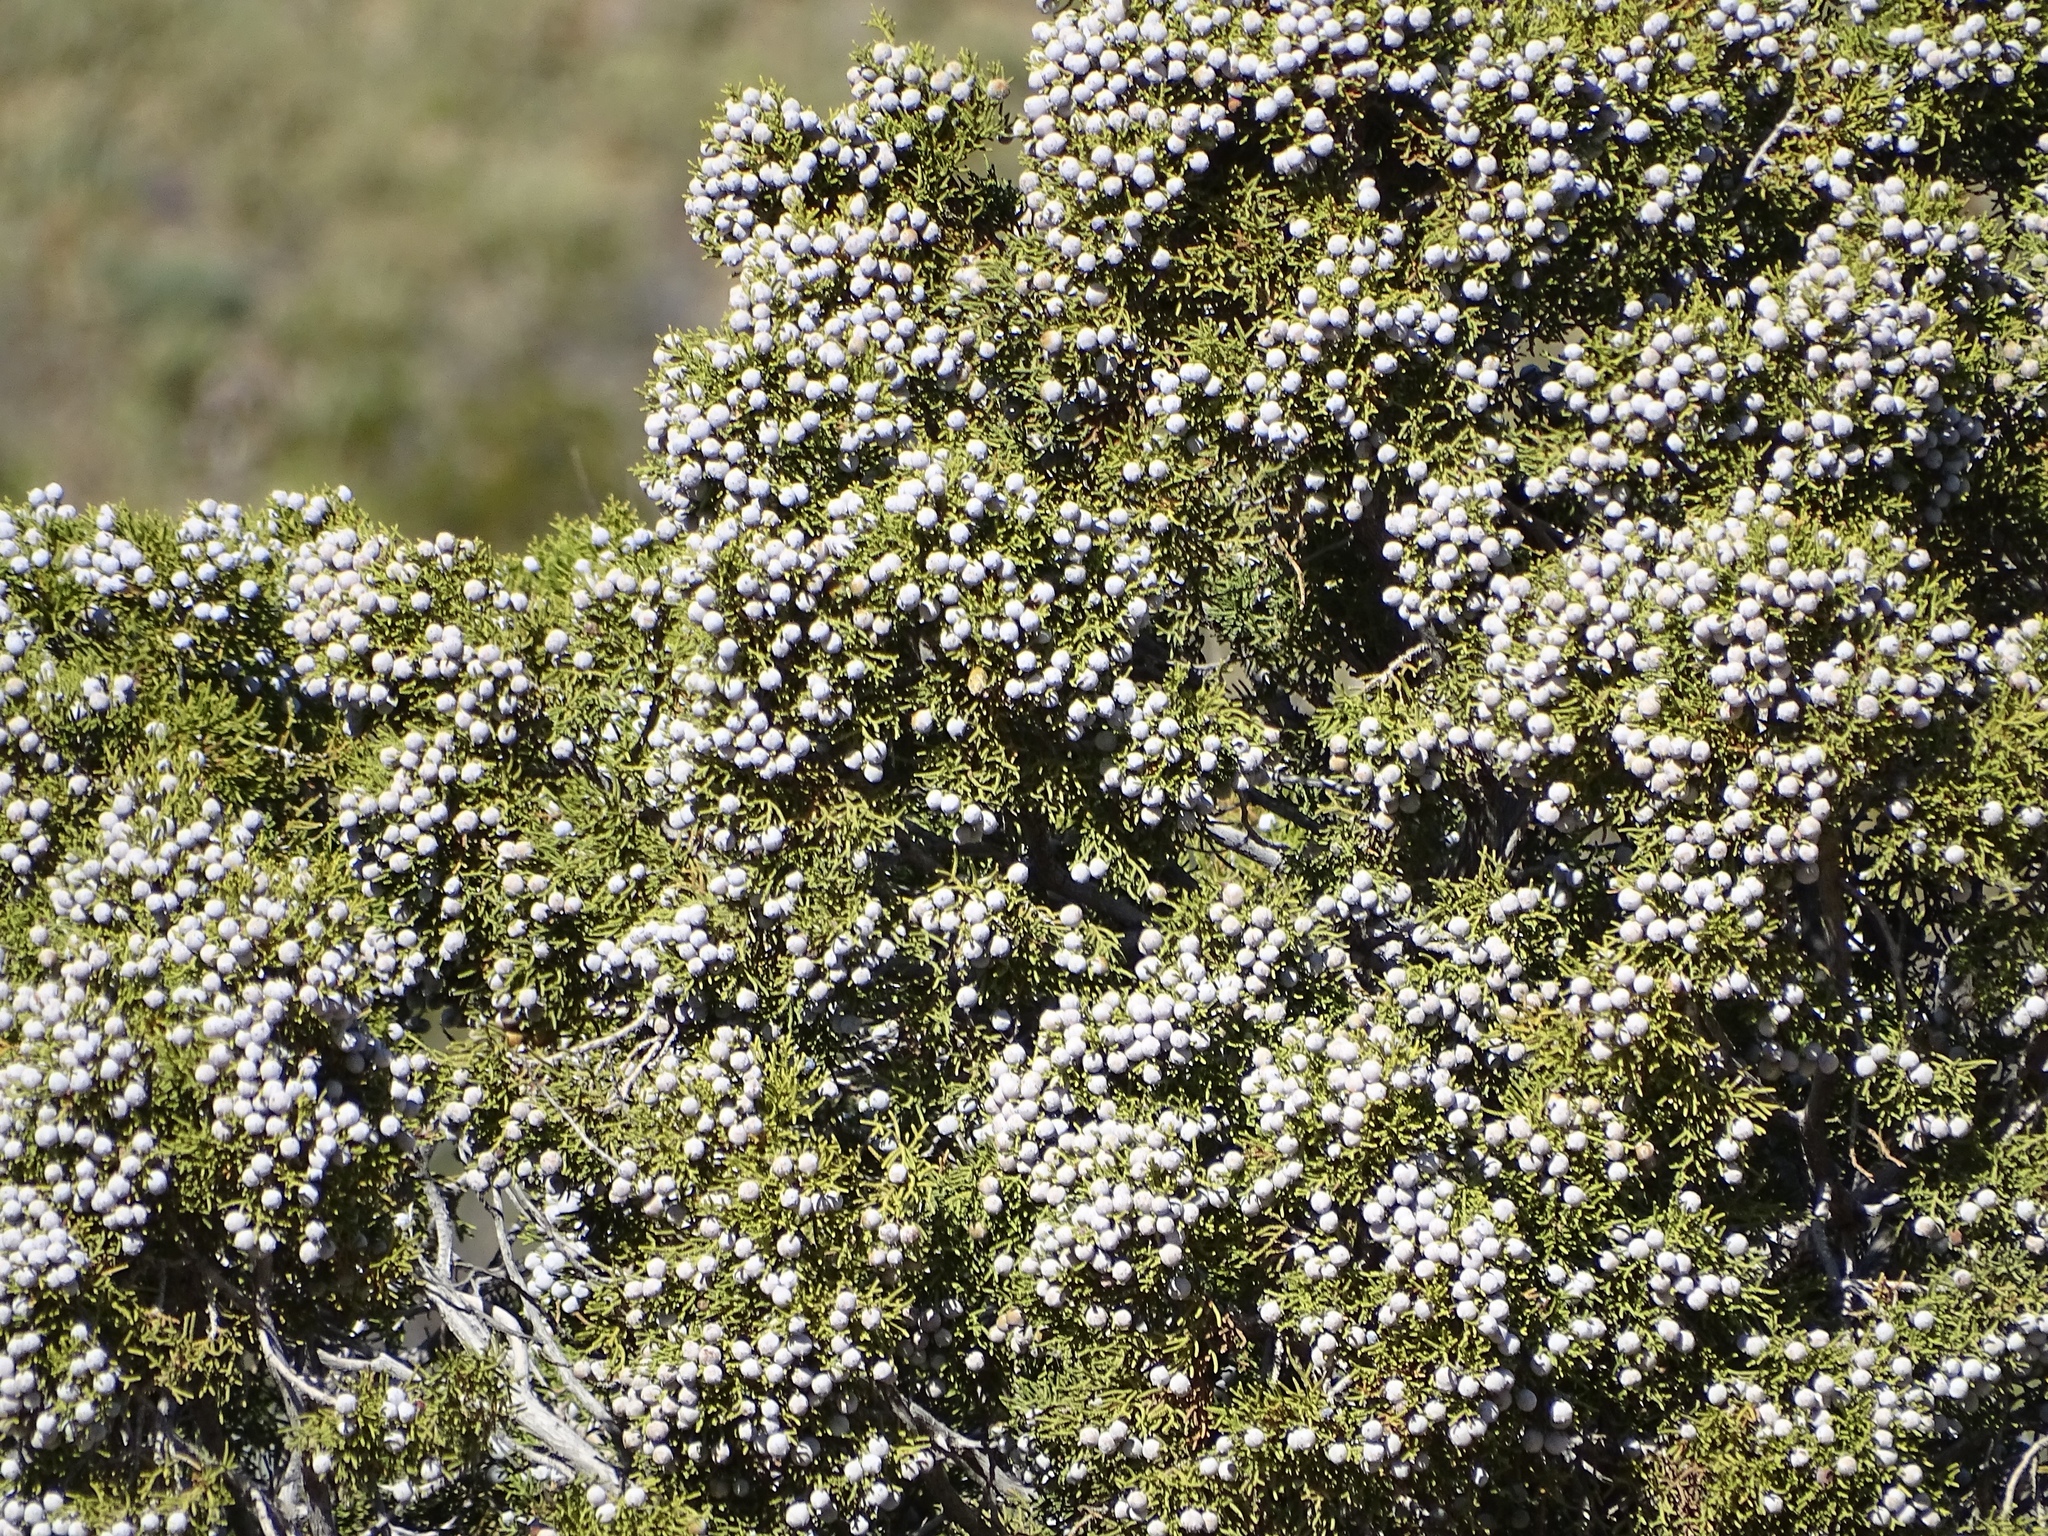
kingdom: Plantae
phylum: Tracheophyta
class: Pinopsida
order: Pinales
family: Cupressaceae
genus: Juniperus
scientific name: Juniperus californica
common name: California juniper
